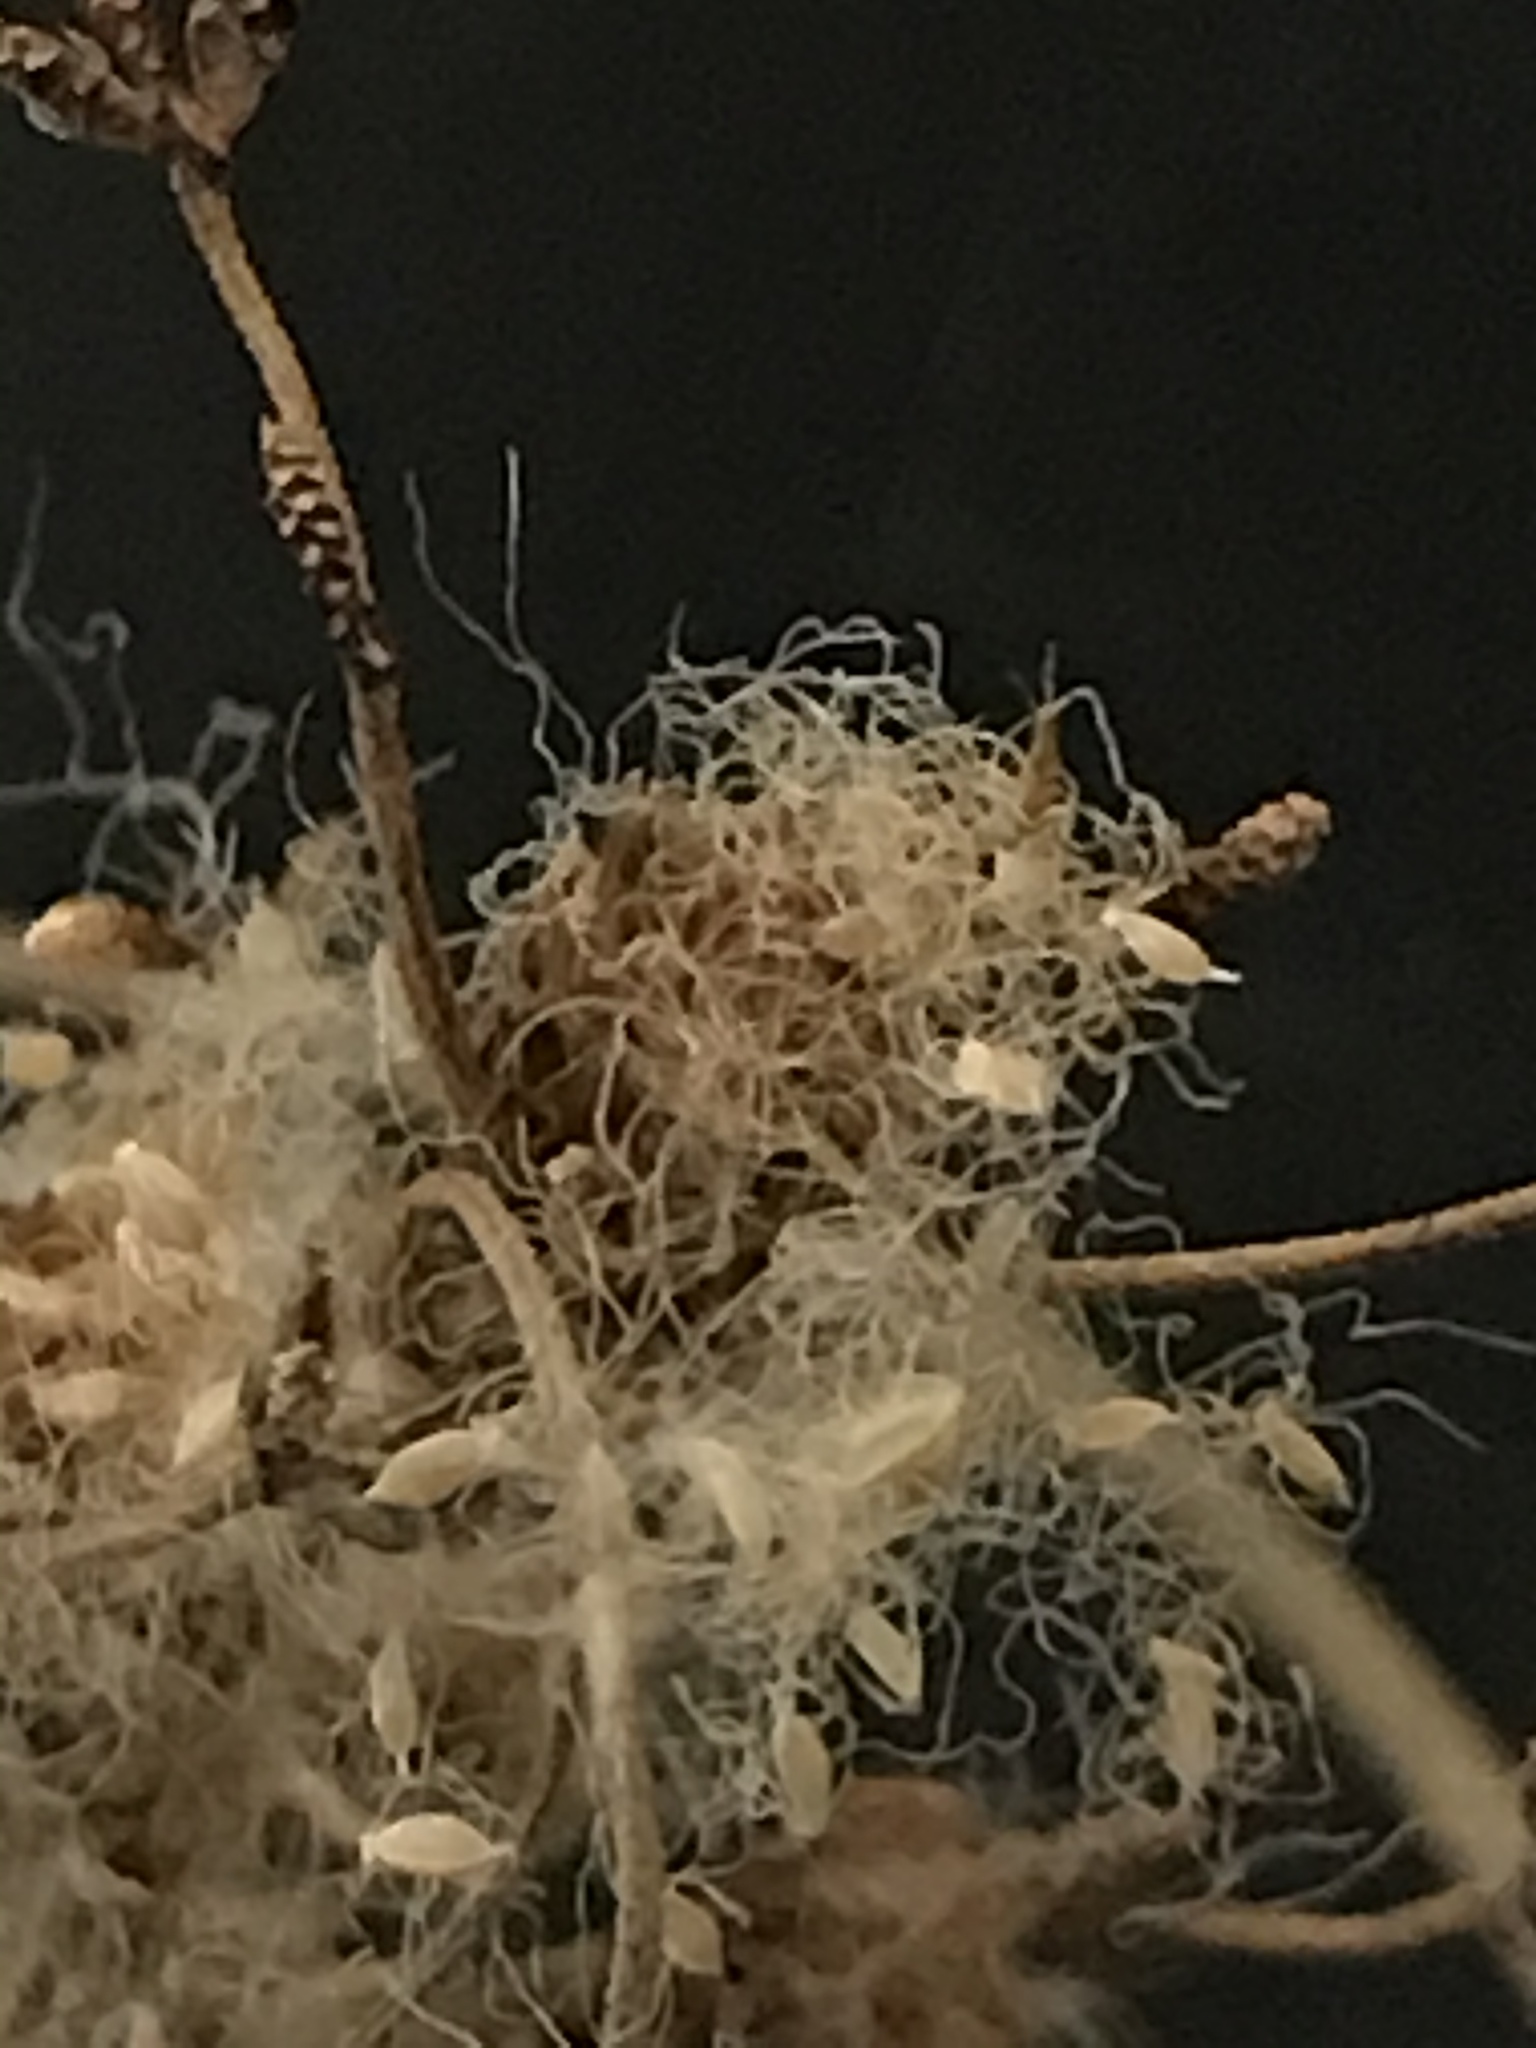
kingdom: Plantae
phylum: Tracheophyta
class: Liliopsida
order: Poales
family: Cyperaceae
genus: Scirpus
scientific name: Scirpus cyperinus
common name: Black-sheathed bulrush
